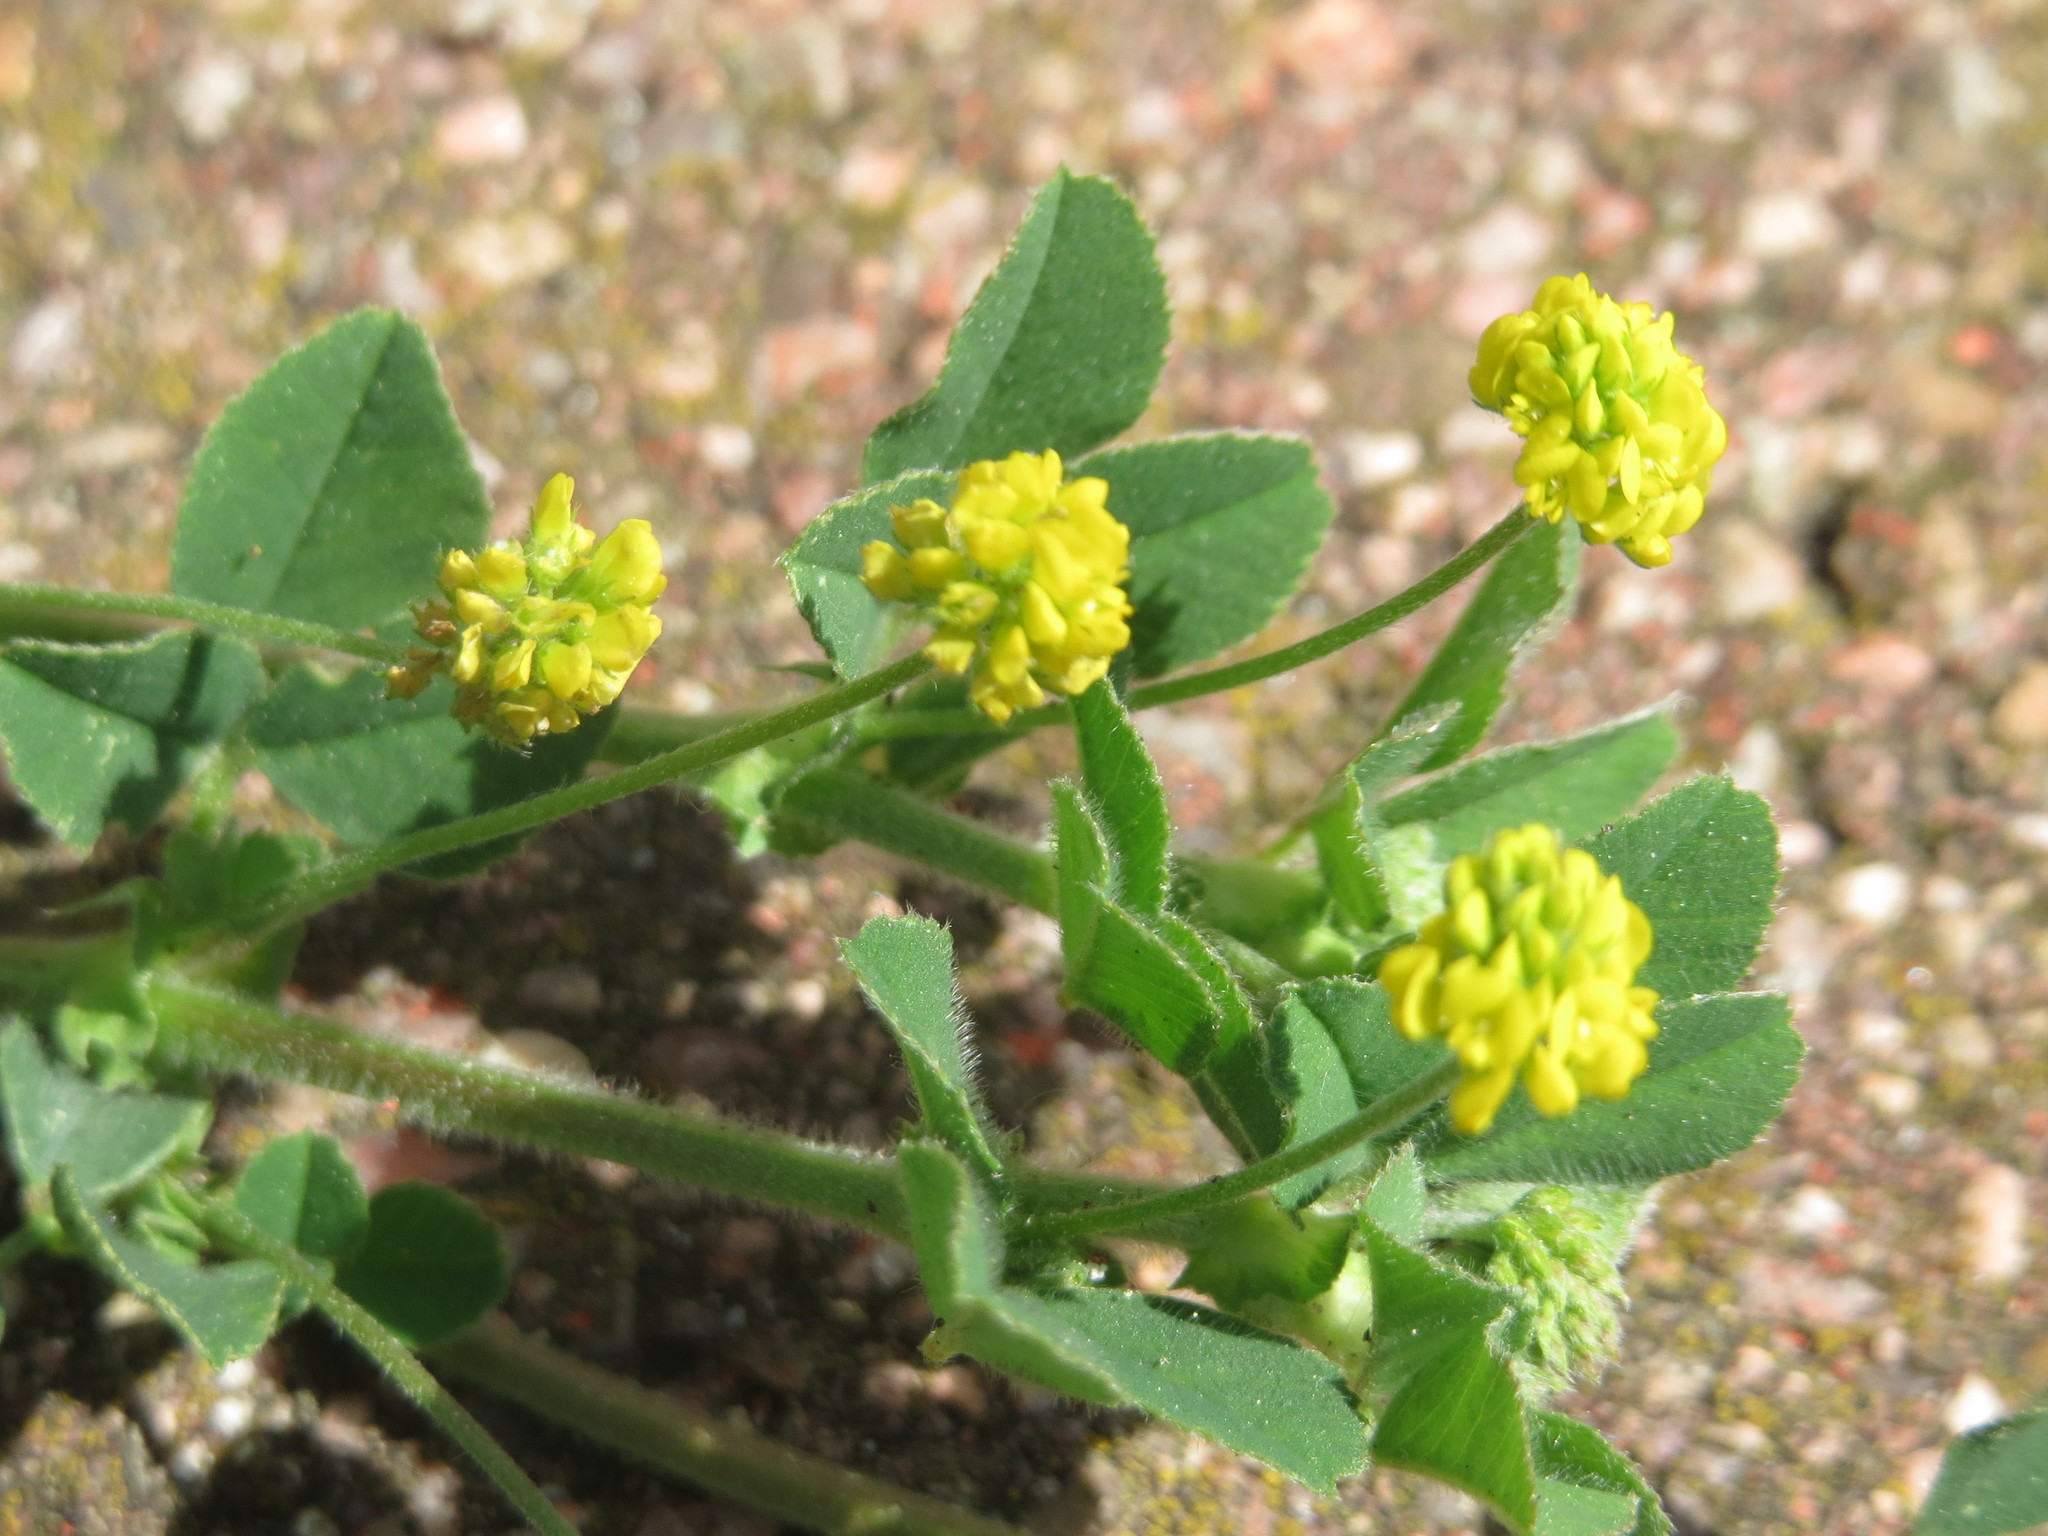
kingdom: Plantae
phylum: Tracheophyta
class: Magnoliopsida
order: Fabales
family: Fabaceae
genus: Medicago
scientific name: Medicago lupulina
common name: Black medick
